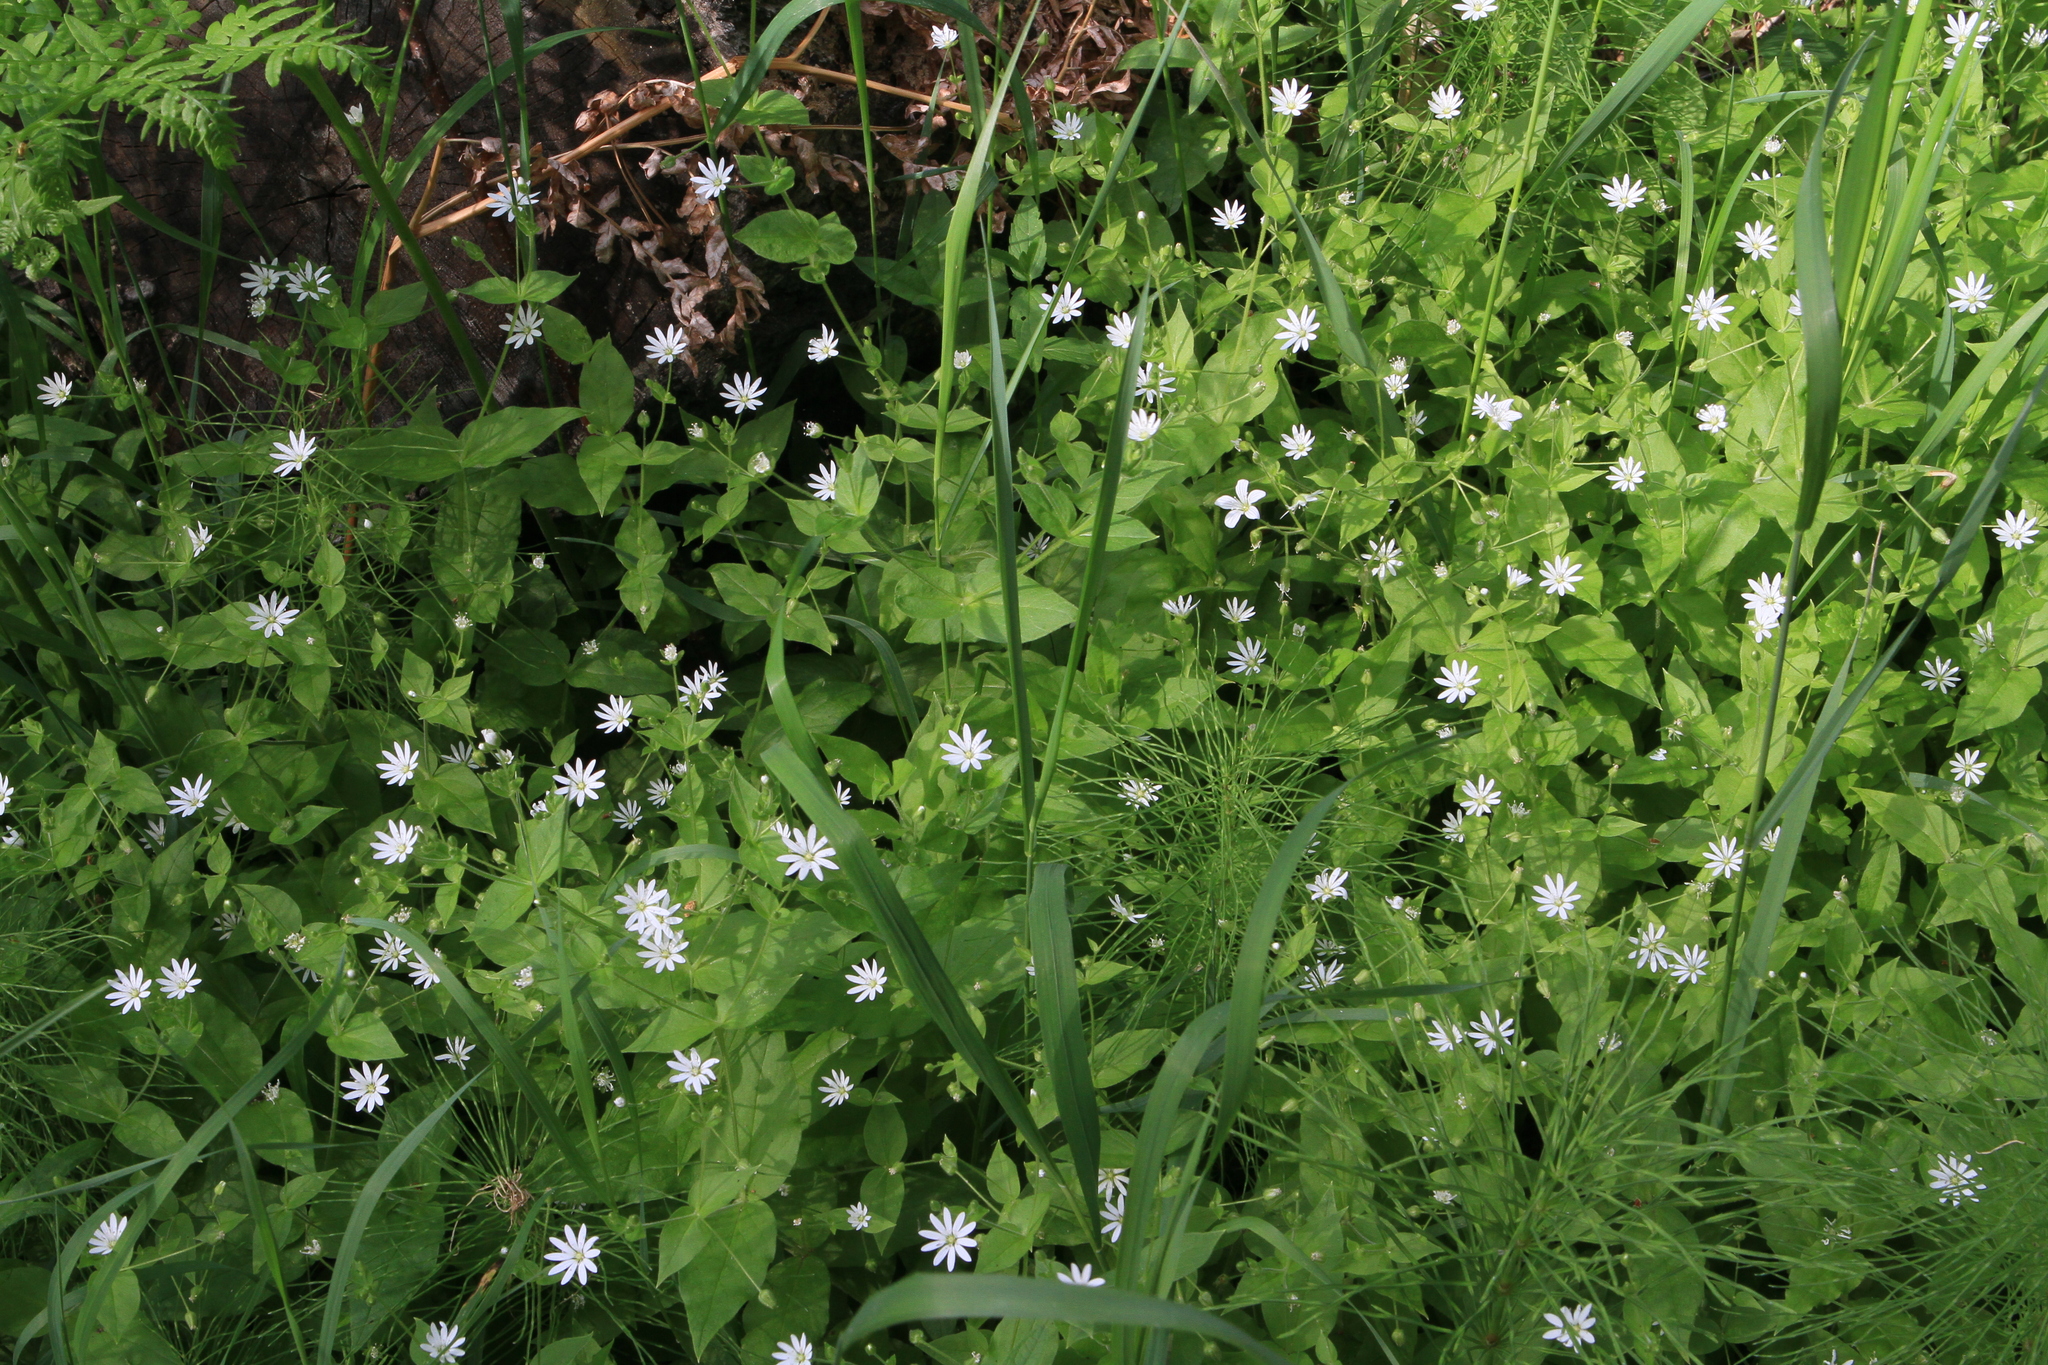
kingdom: Plantae
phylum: Tracheophyta
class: Magnoliopsida
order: Caryophyllales
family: Caryophyllaceae
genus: Stellaria
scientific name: Stellaria bungeana
